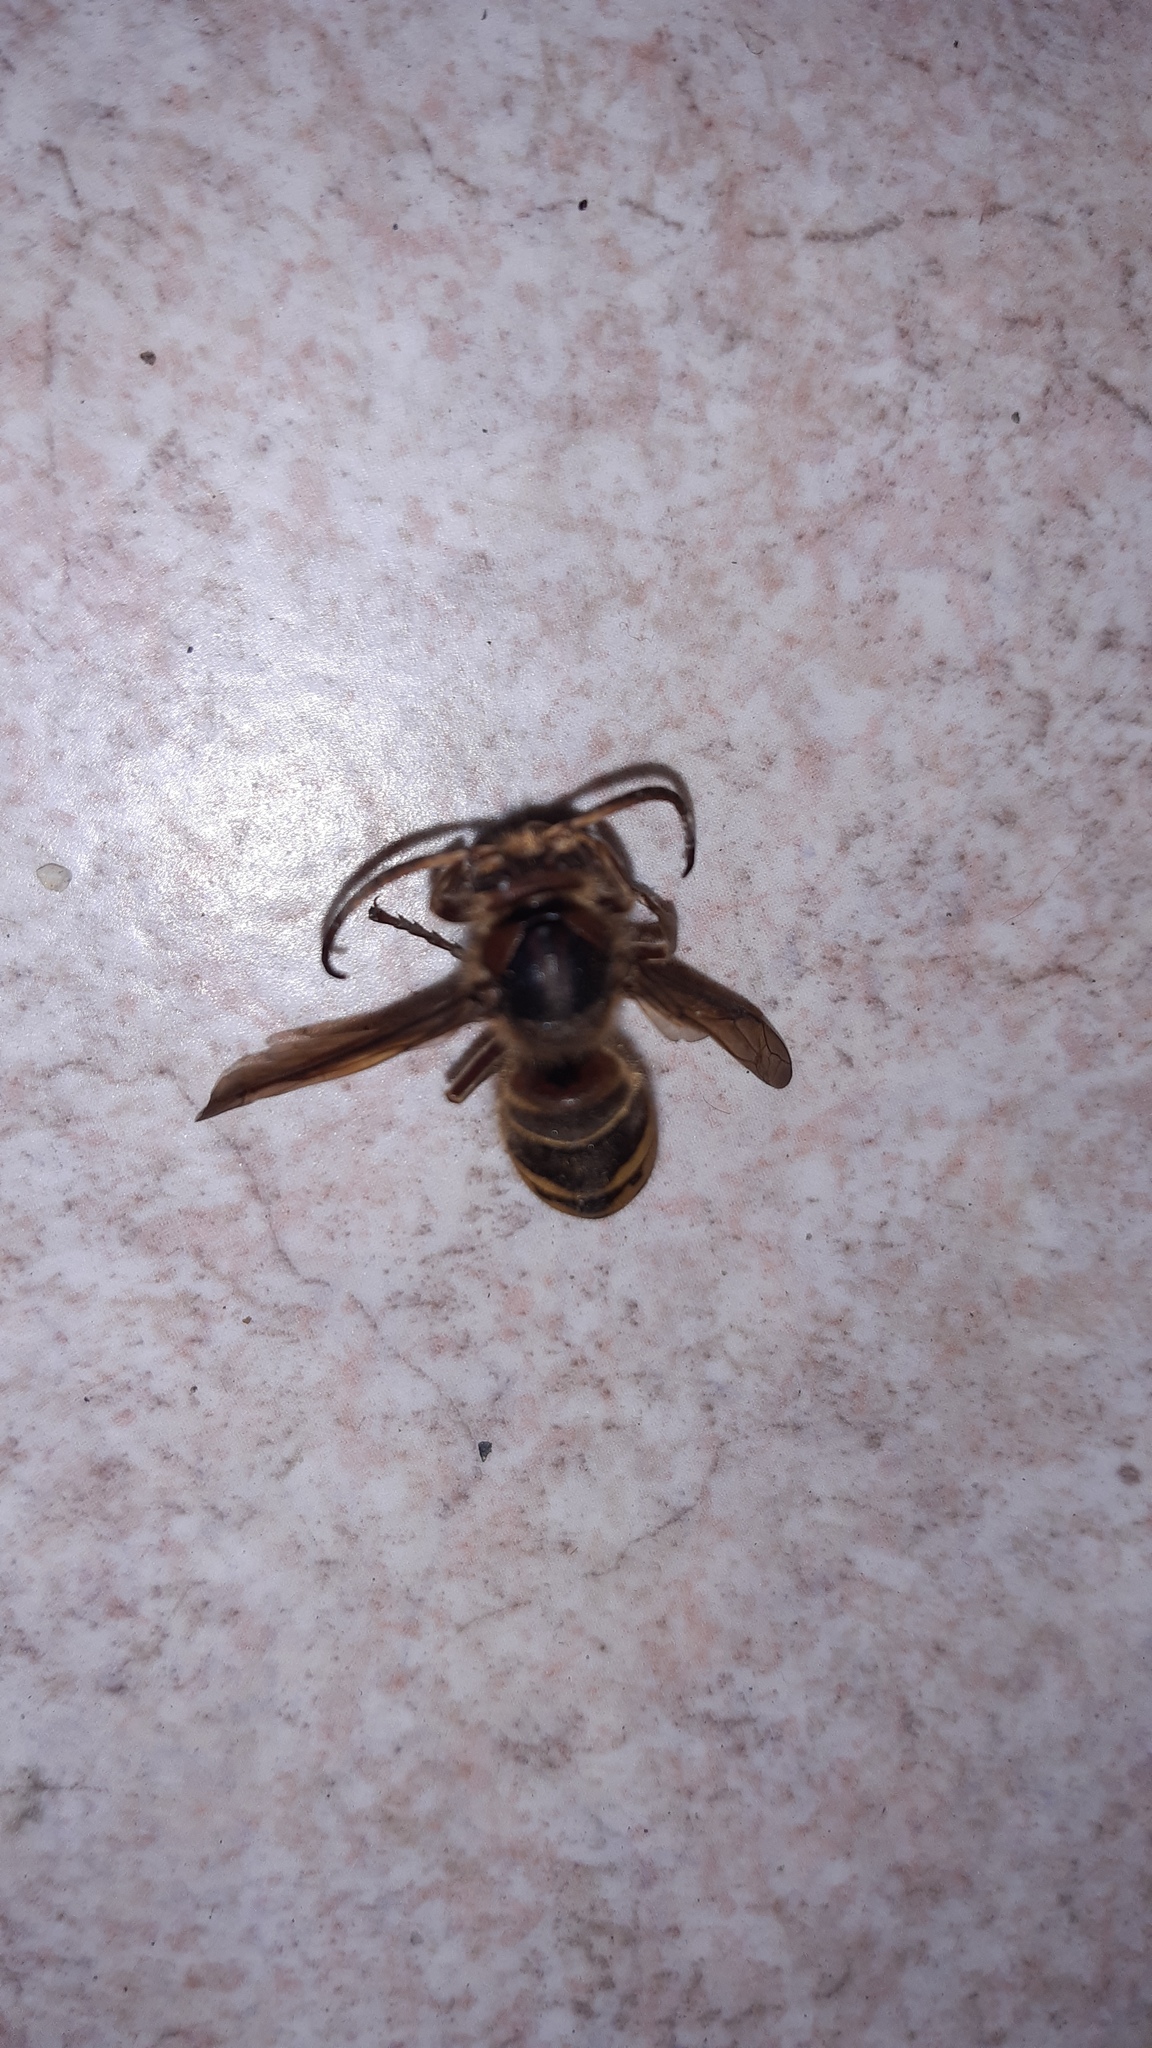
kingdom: Animalia
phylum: Arthropoda
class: Insecta
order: Hymenoptera
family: Vespidae
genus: Vespa
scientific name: Vespa crabro
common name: Hornet
